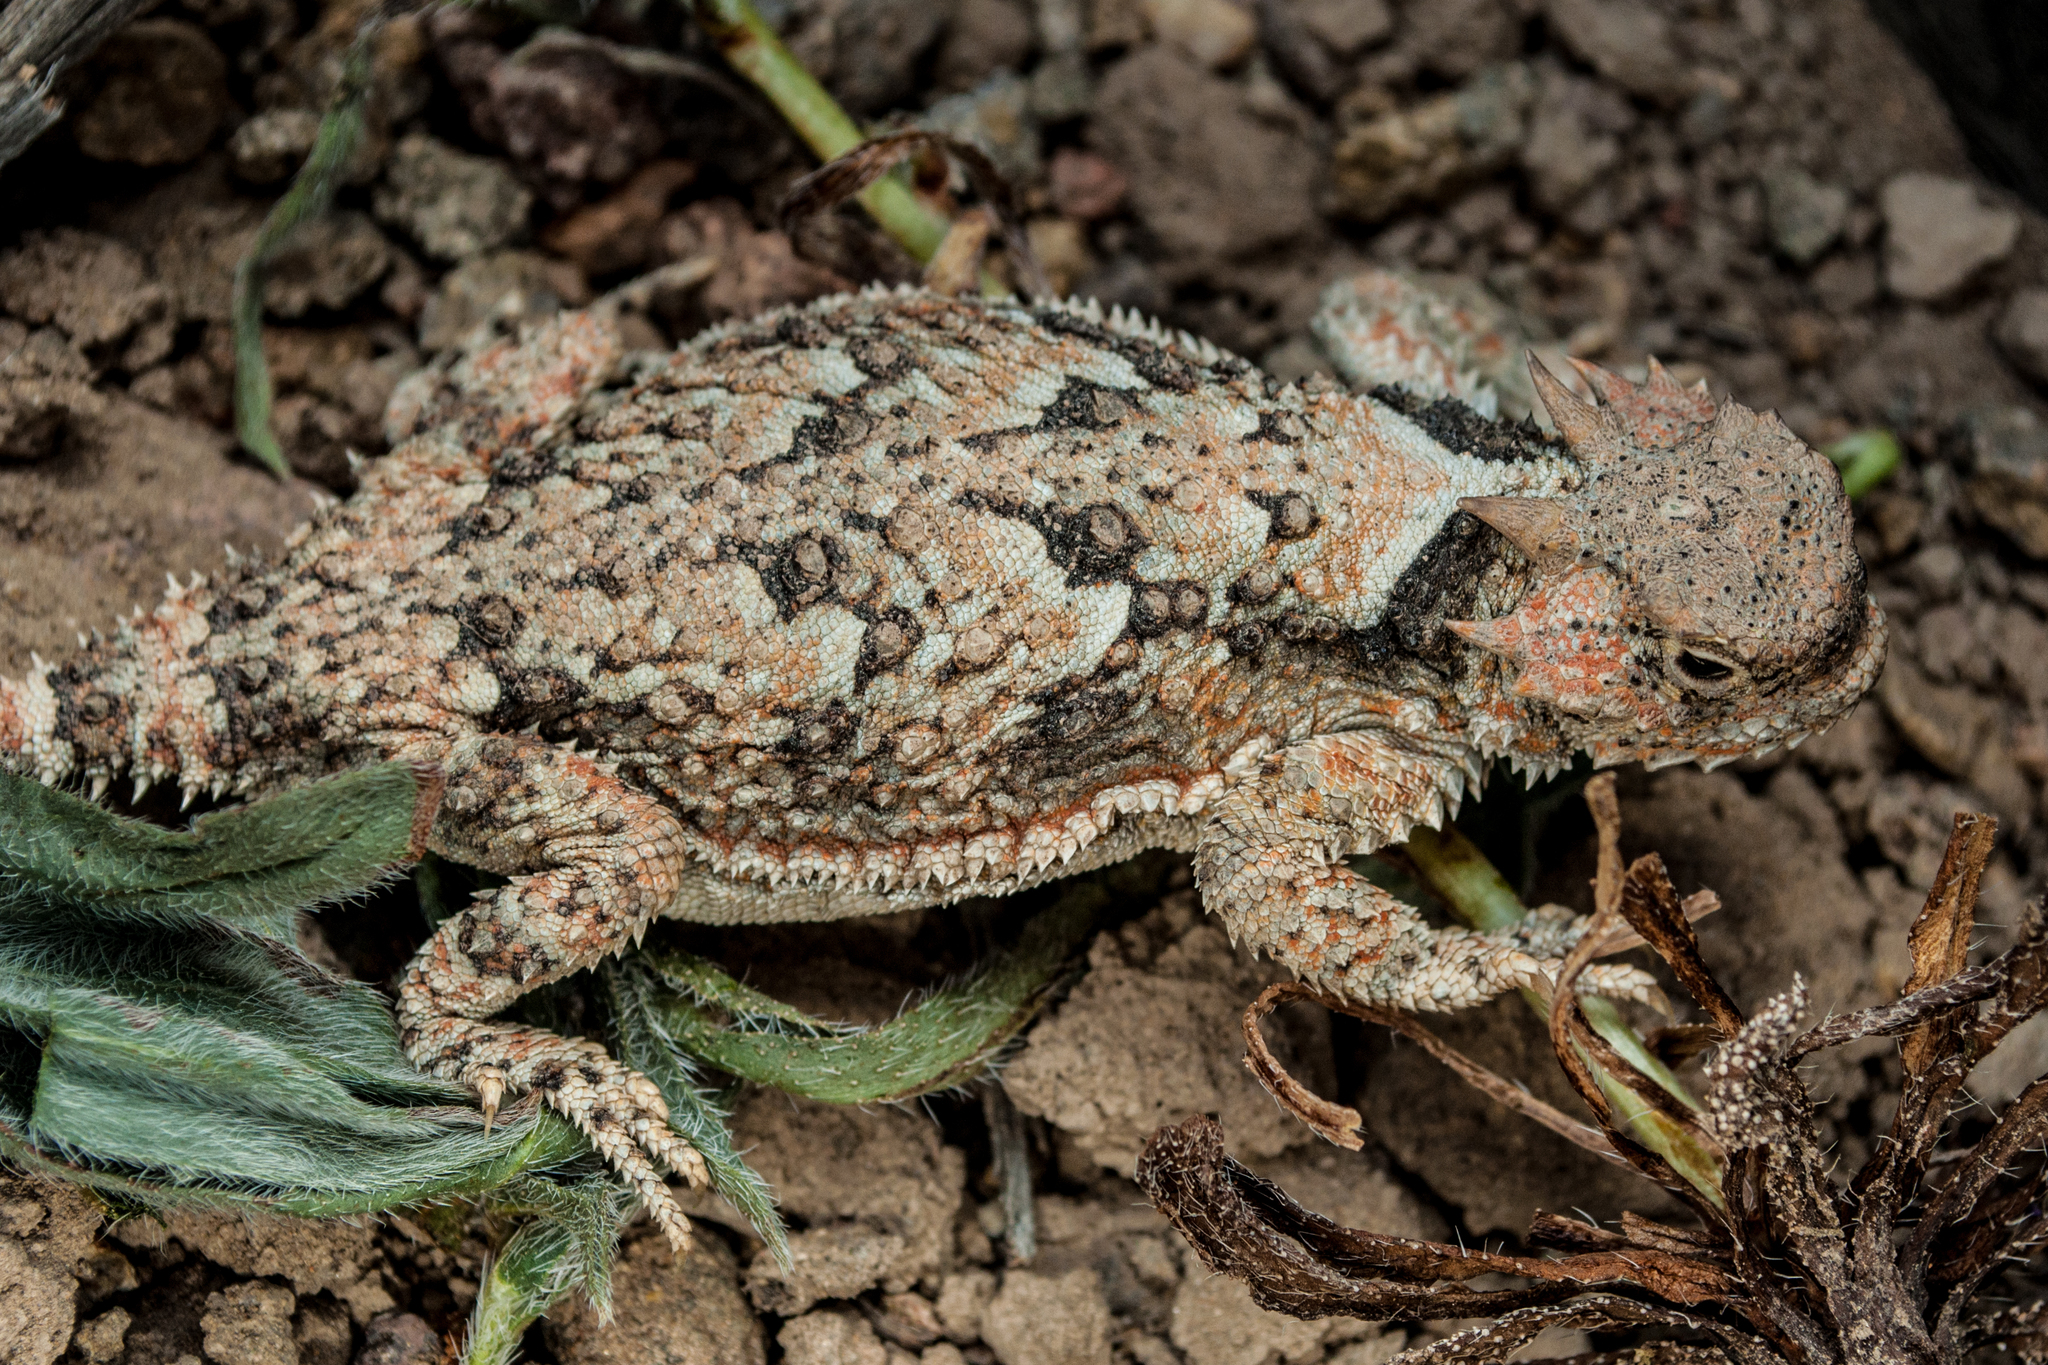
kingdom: Animalia
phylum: Chordata
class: Squamata
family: Phrynosomatidae
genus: Phrynosoma
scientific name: Phrynosoma platyrhinos
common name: Desert horned lizard
